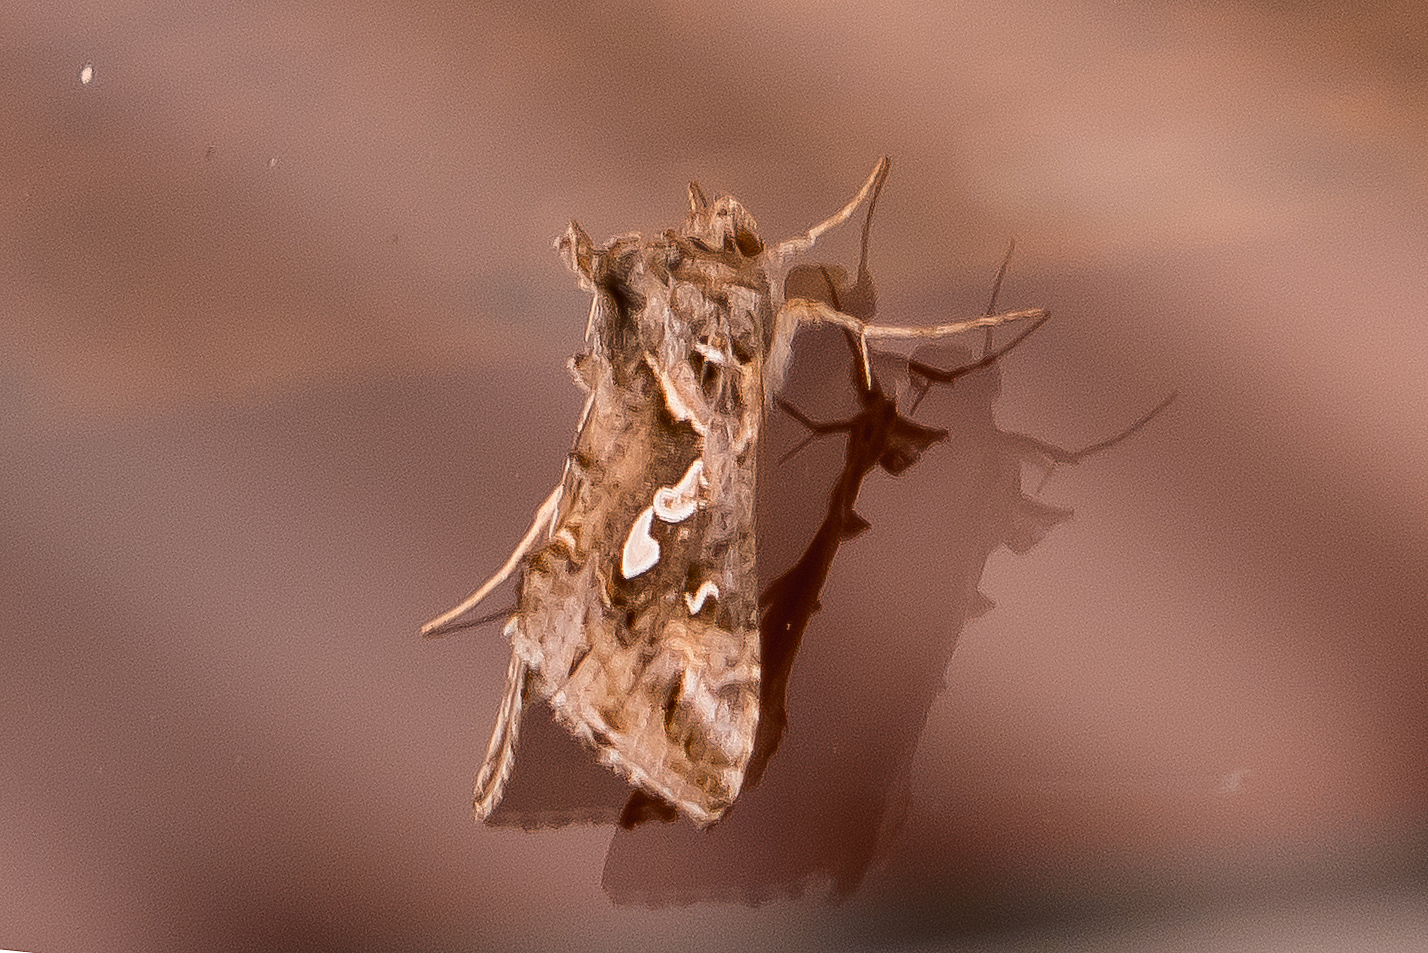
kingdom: Animalia
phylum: Arthropoda
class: Insecta
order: Lepidoptera
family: Noctuidae
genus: Chrysodeixis
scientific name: Chrysodeixis argentifera
